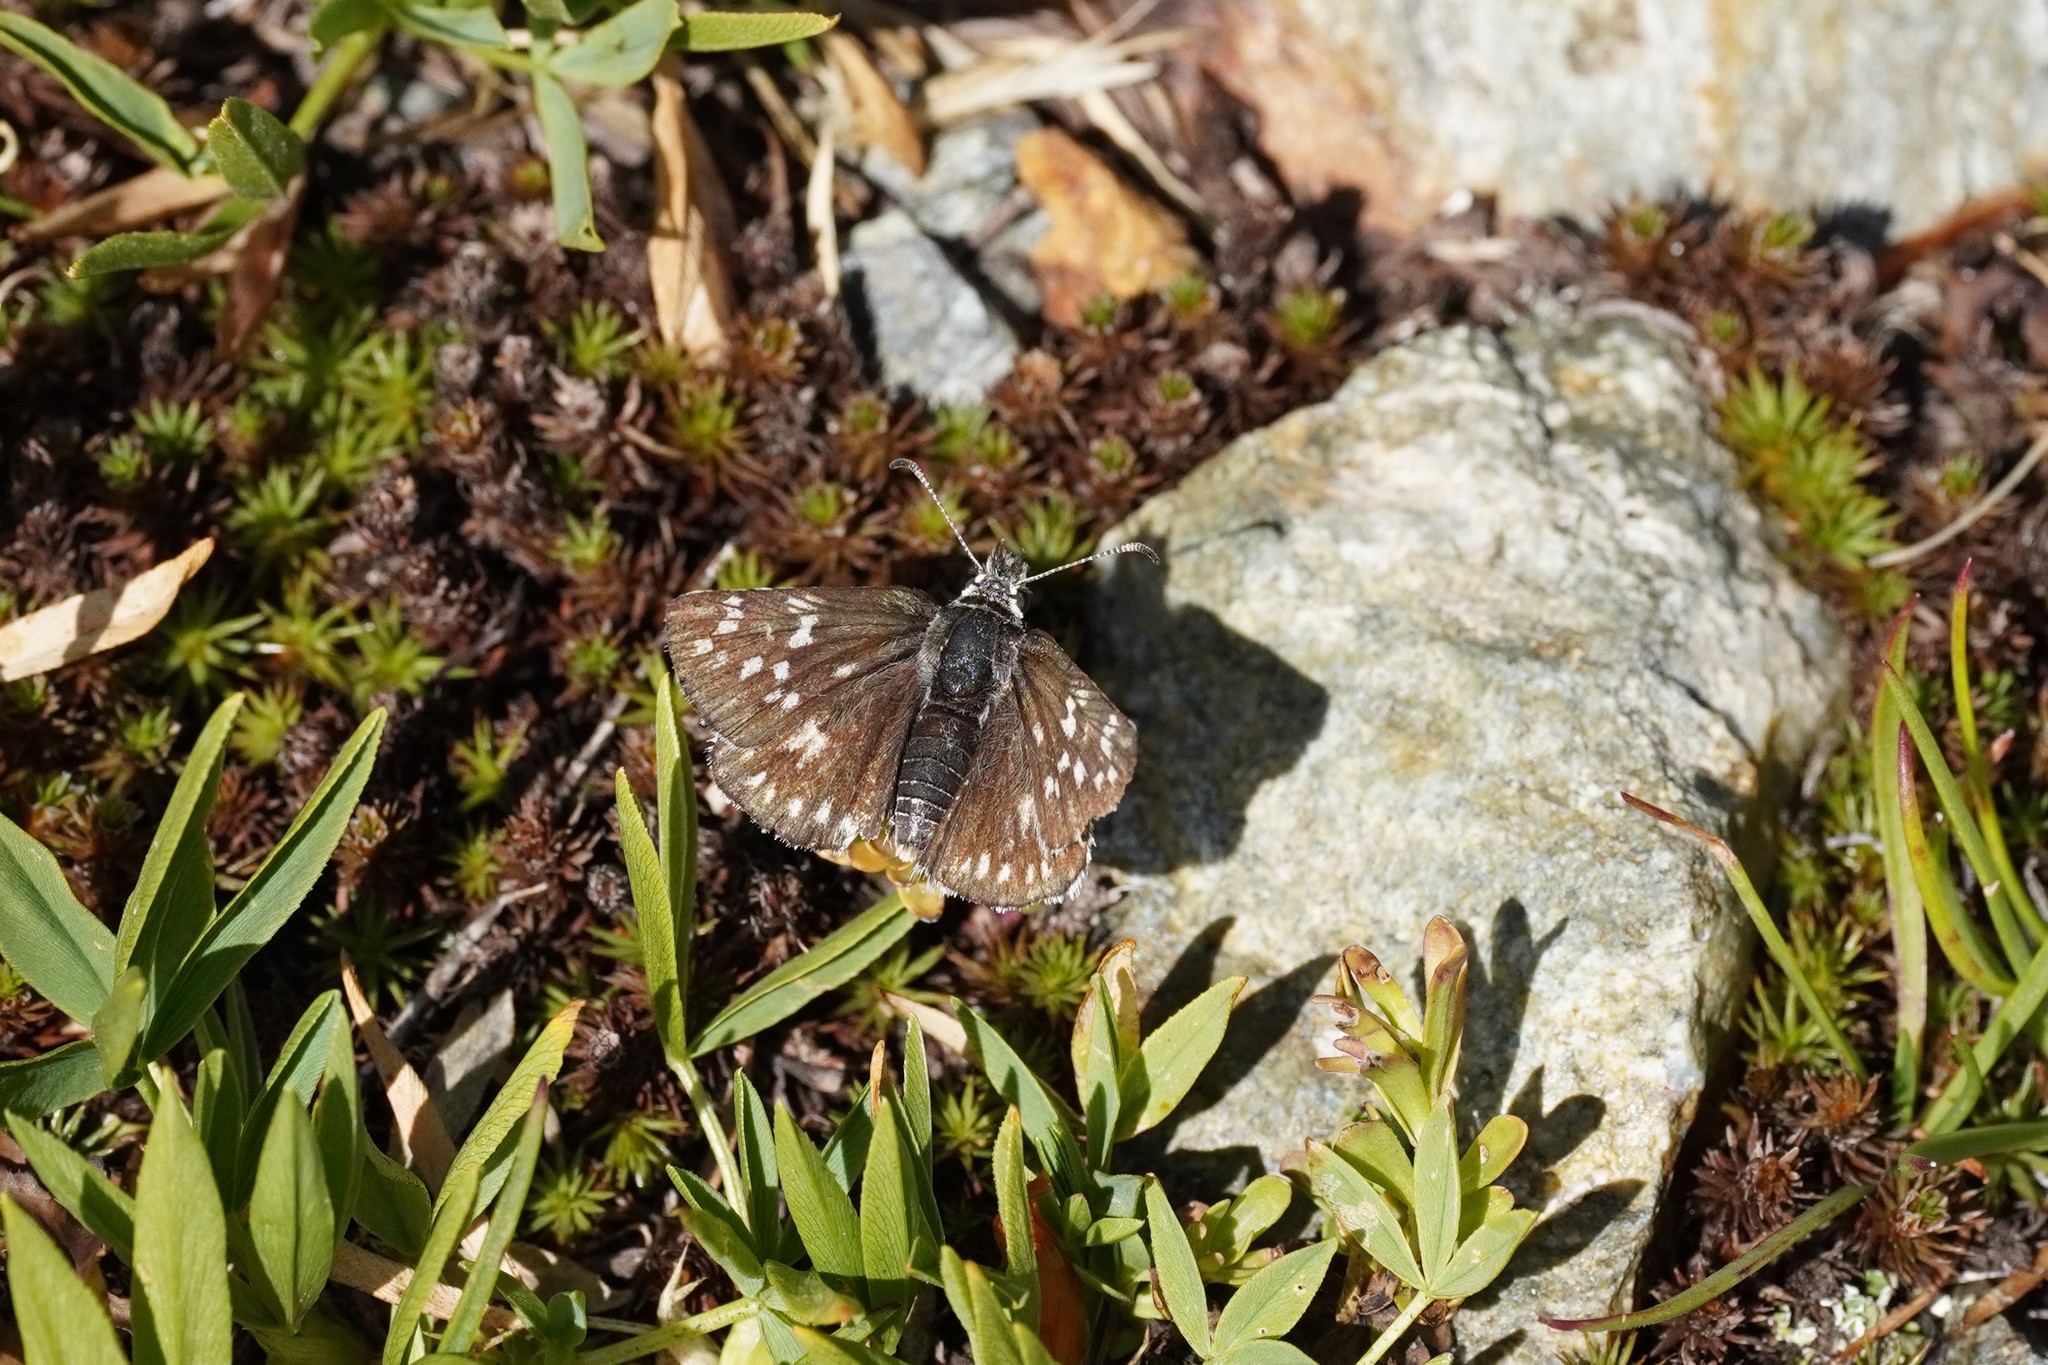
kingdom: Animalia
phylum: Arthropoda
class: Insecta
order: Lepidoptera
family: Hesperiidae
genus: Pyrgus
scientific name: Pyrgus fritillarius
